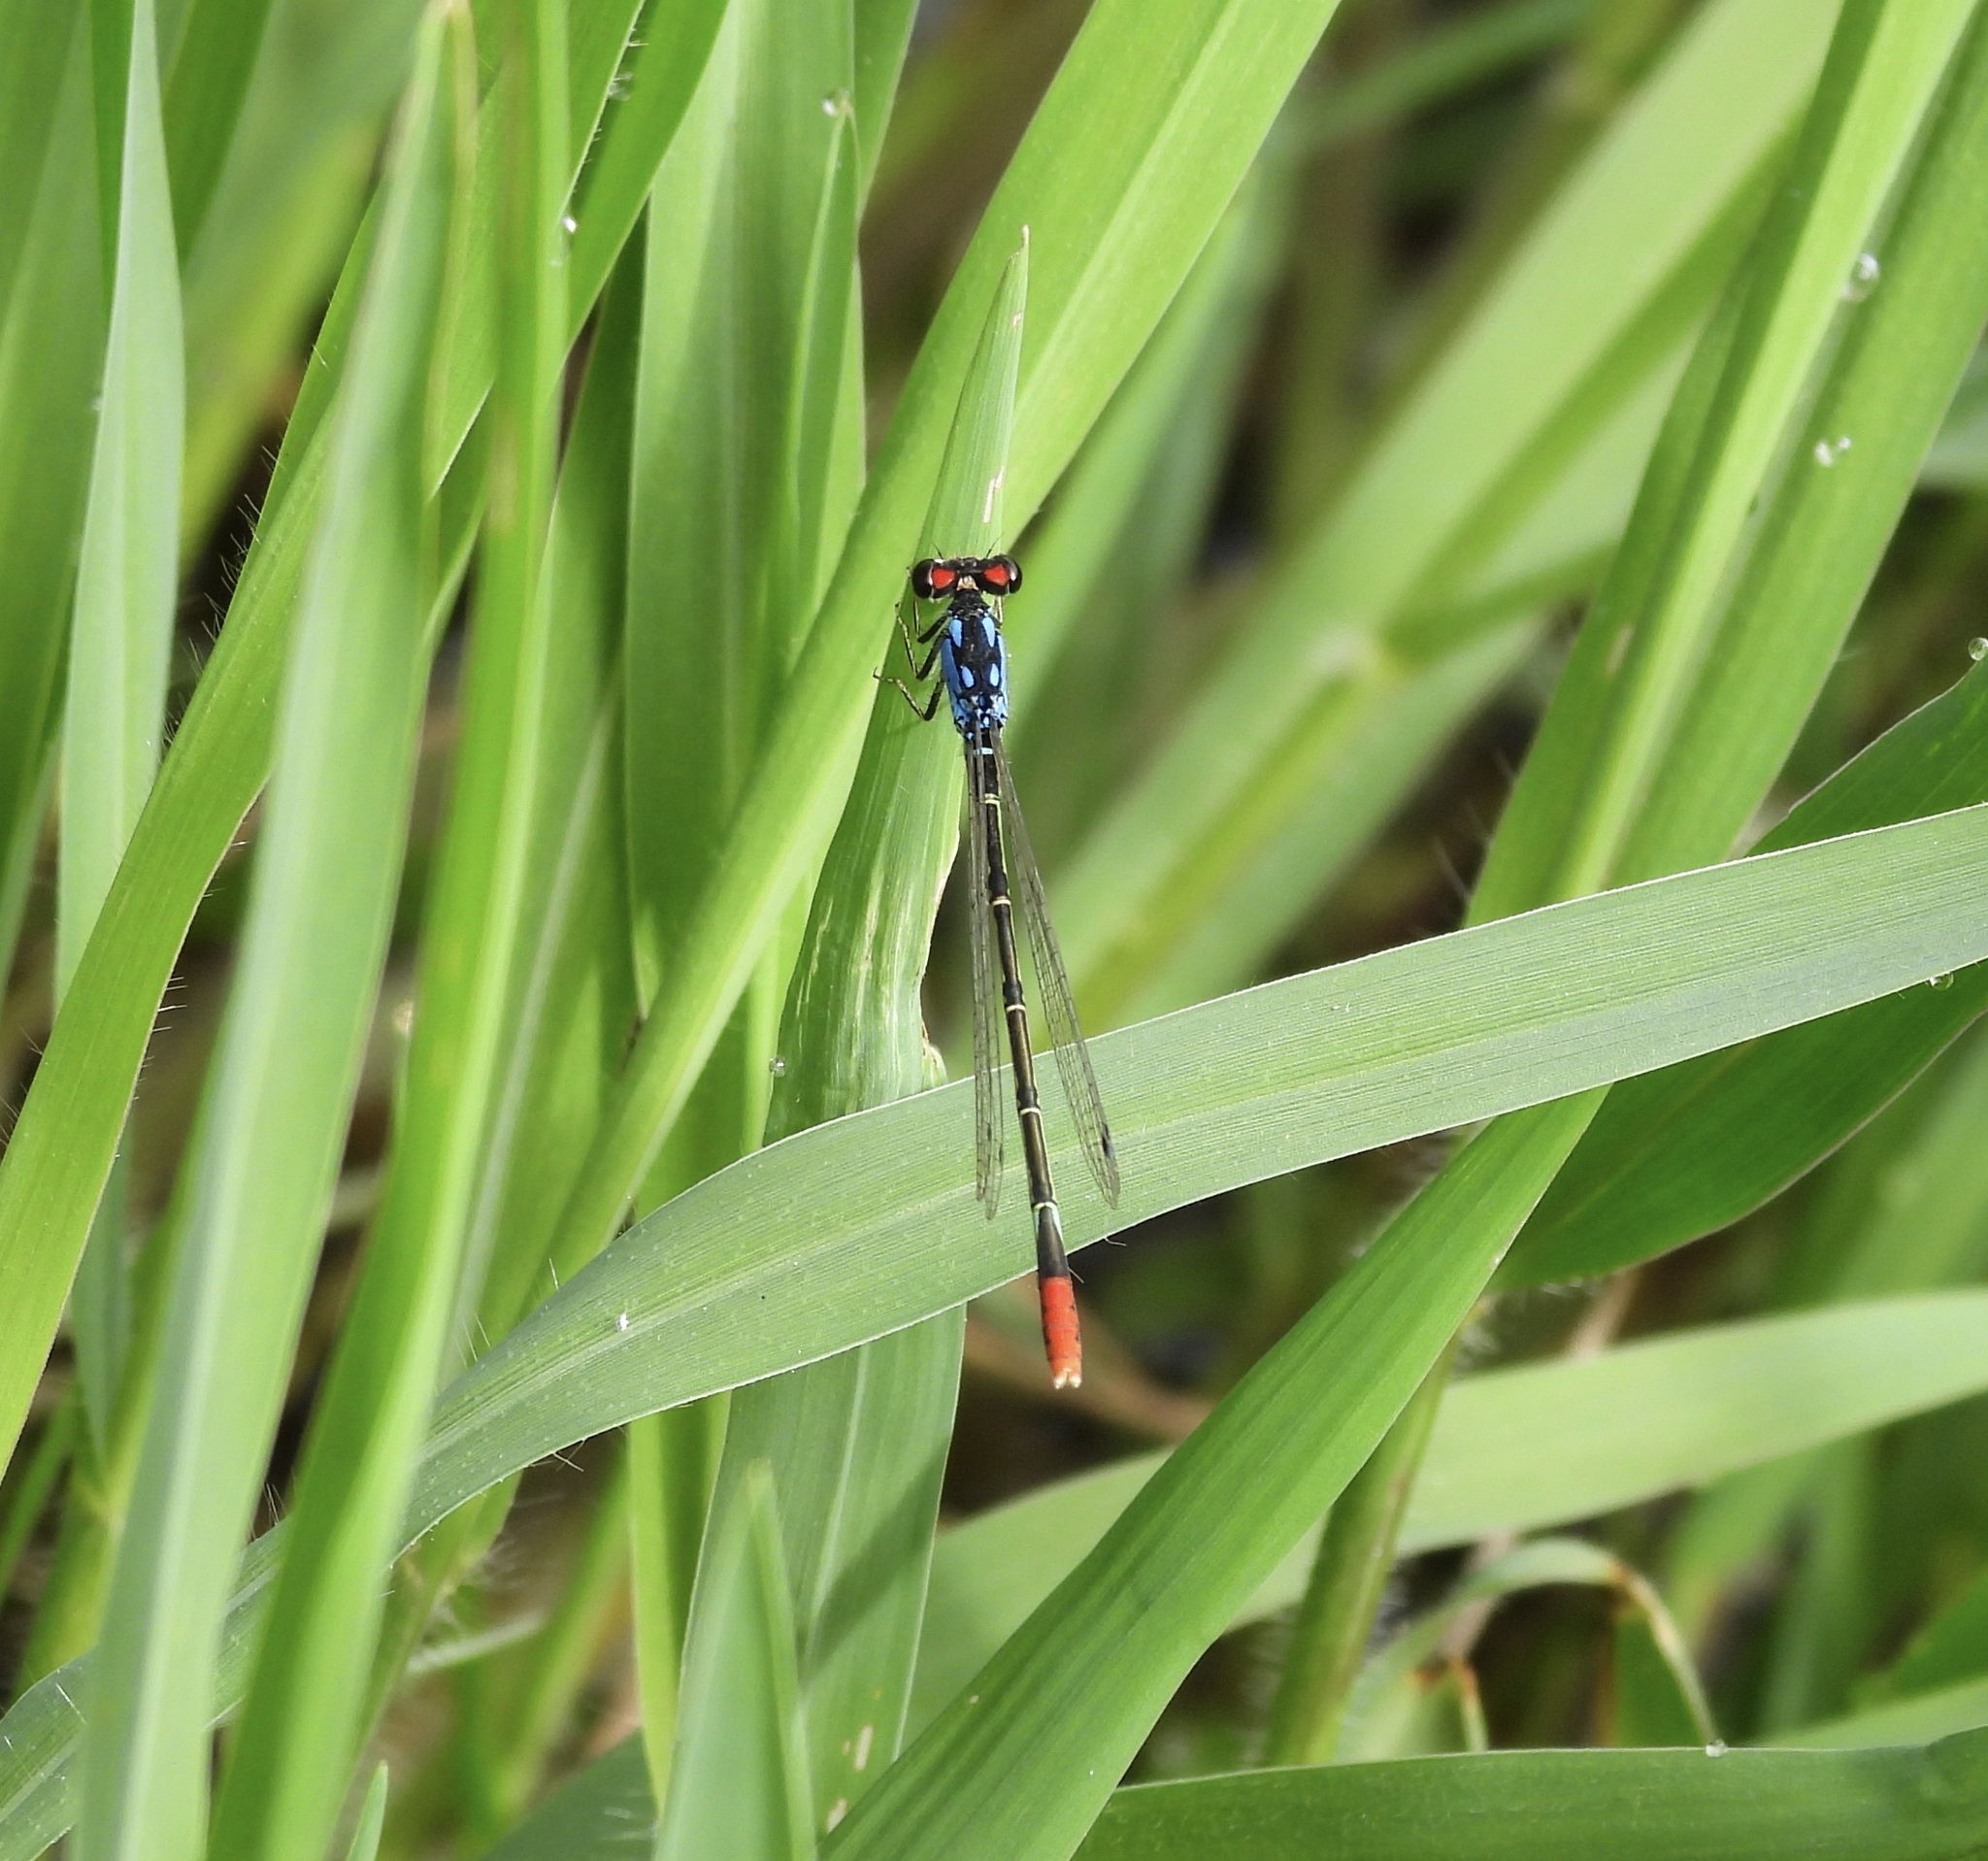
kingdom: Animalia
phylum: Arthropoda
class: Insecta
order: Odonata
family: Coenagrionidae
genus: Hesperagrion
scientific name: Hesperagrion heterodoxum
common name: Painted damsel
